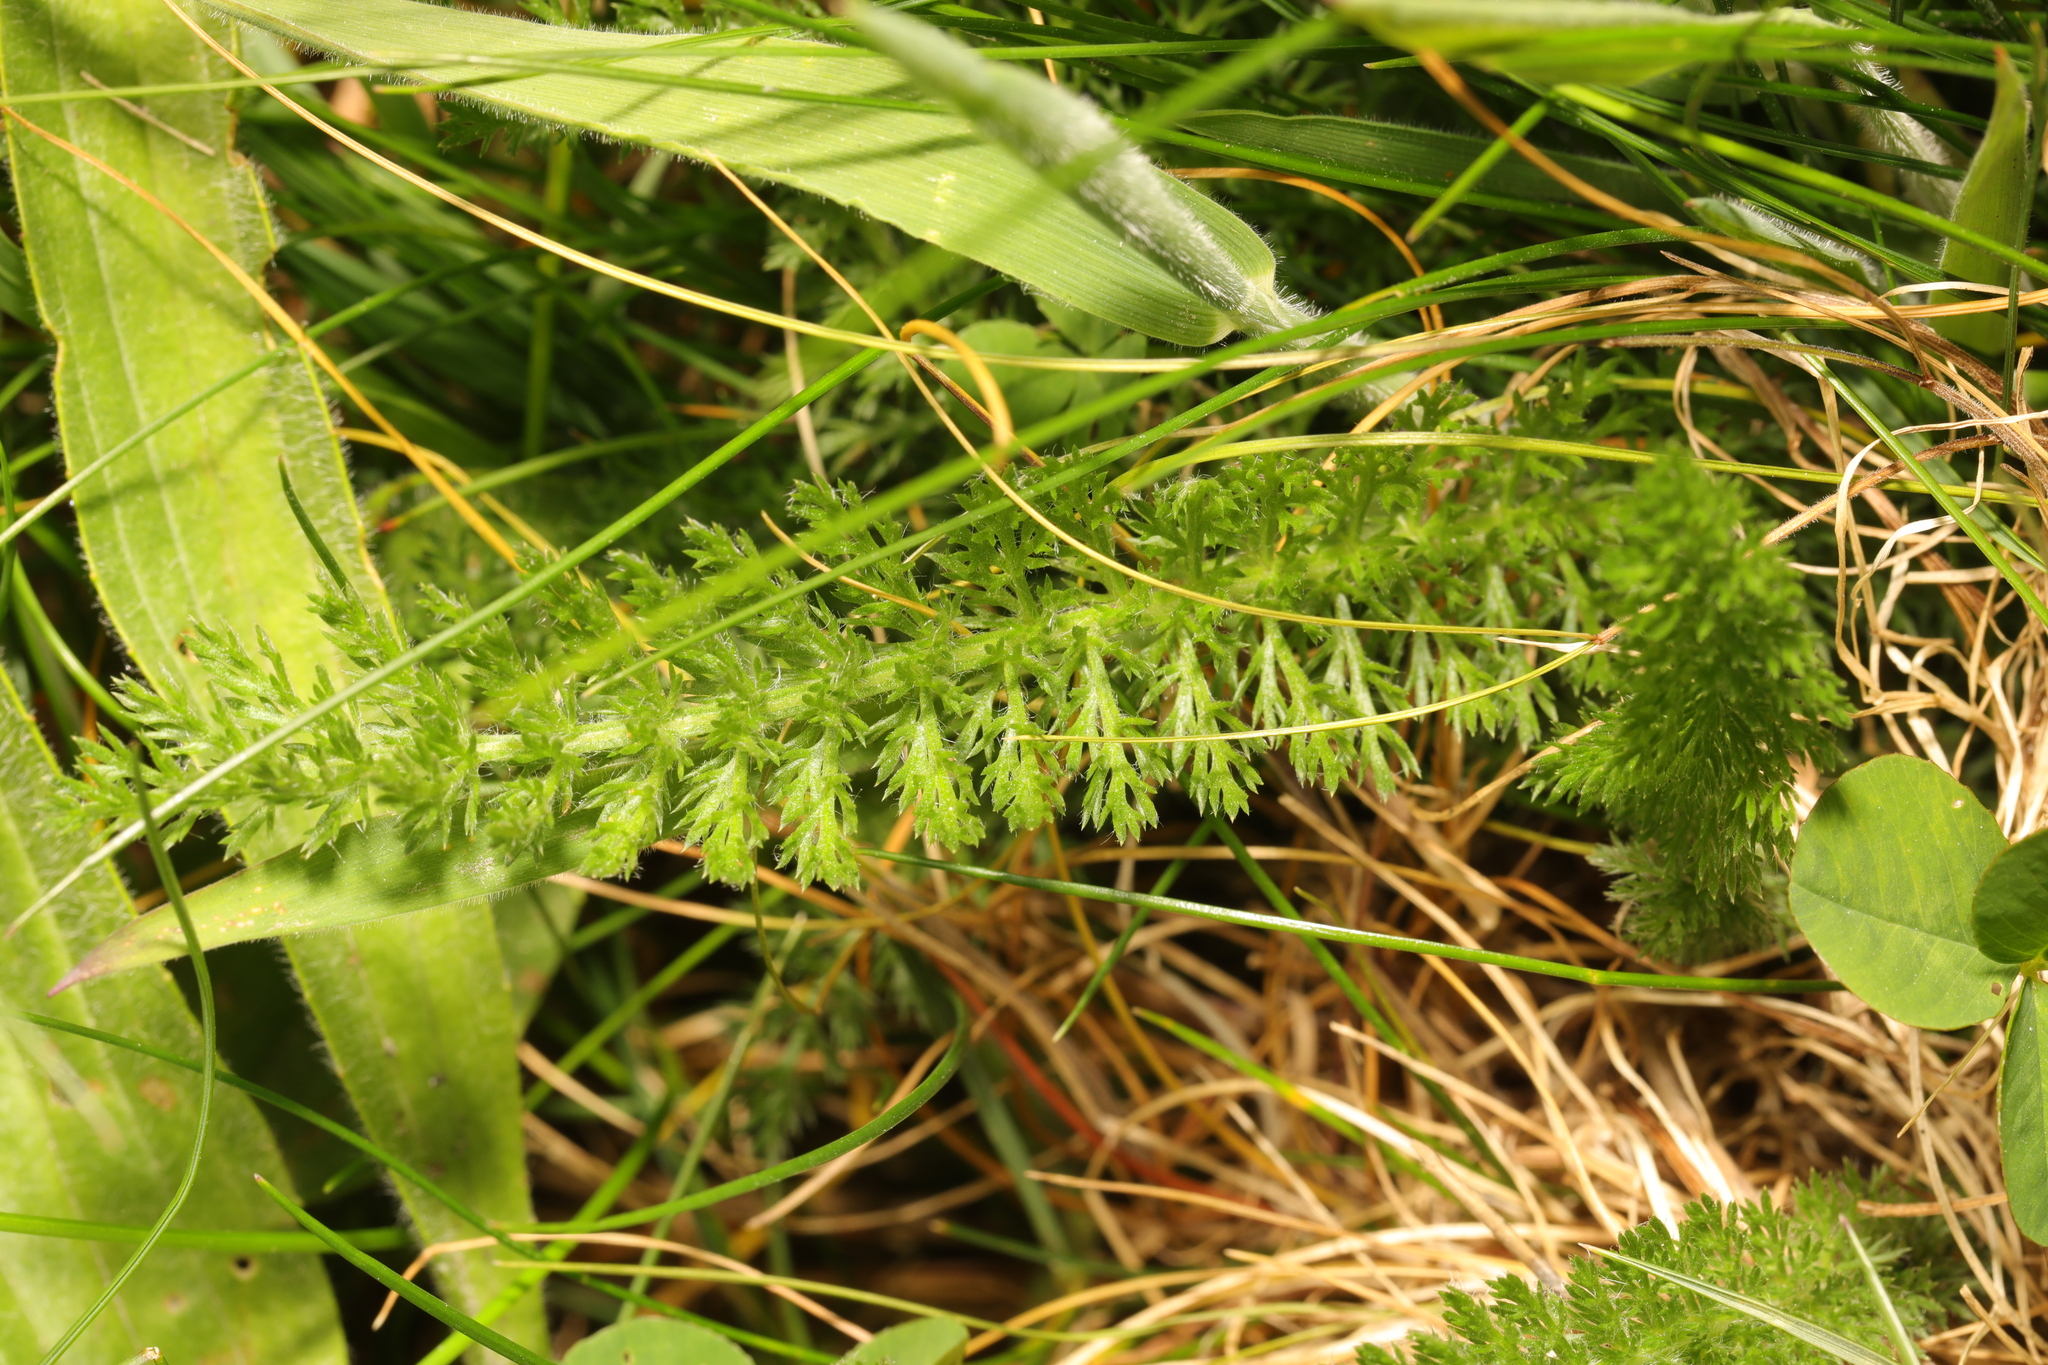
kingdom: Plantae
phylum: Tracheophyta
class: Magnoliopsida
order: Asterales
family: Asteraceae
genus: Achillea
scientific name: Achillea millefolium
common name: Yarrow
